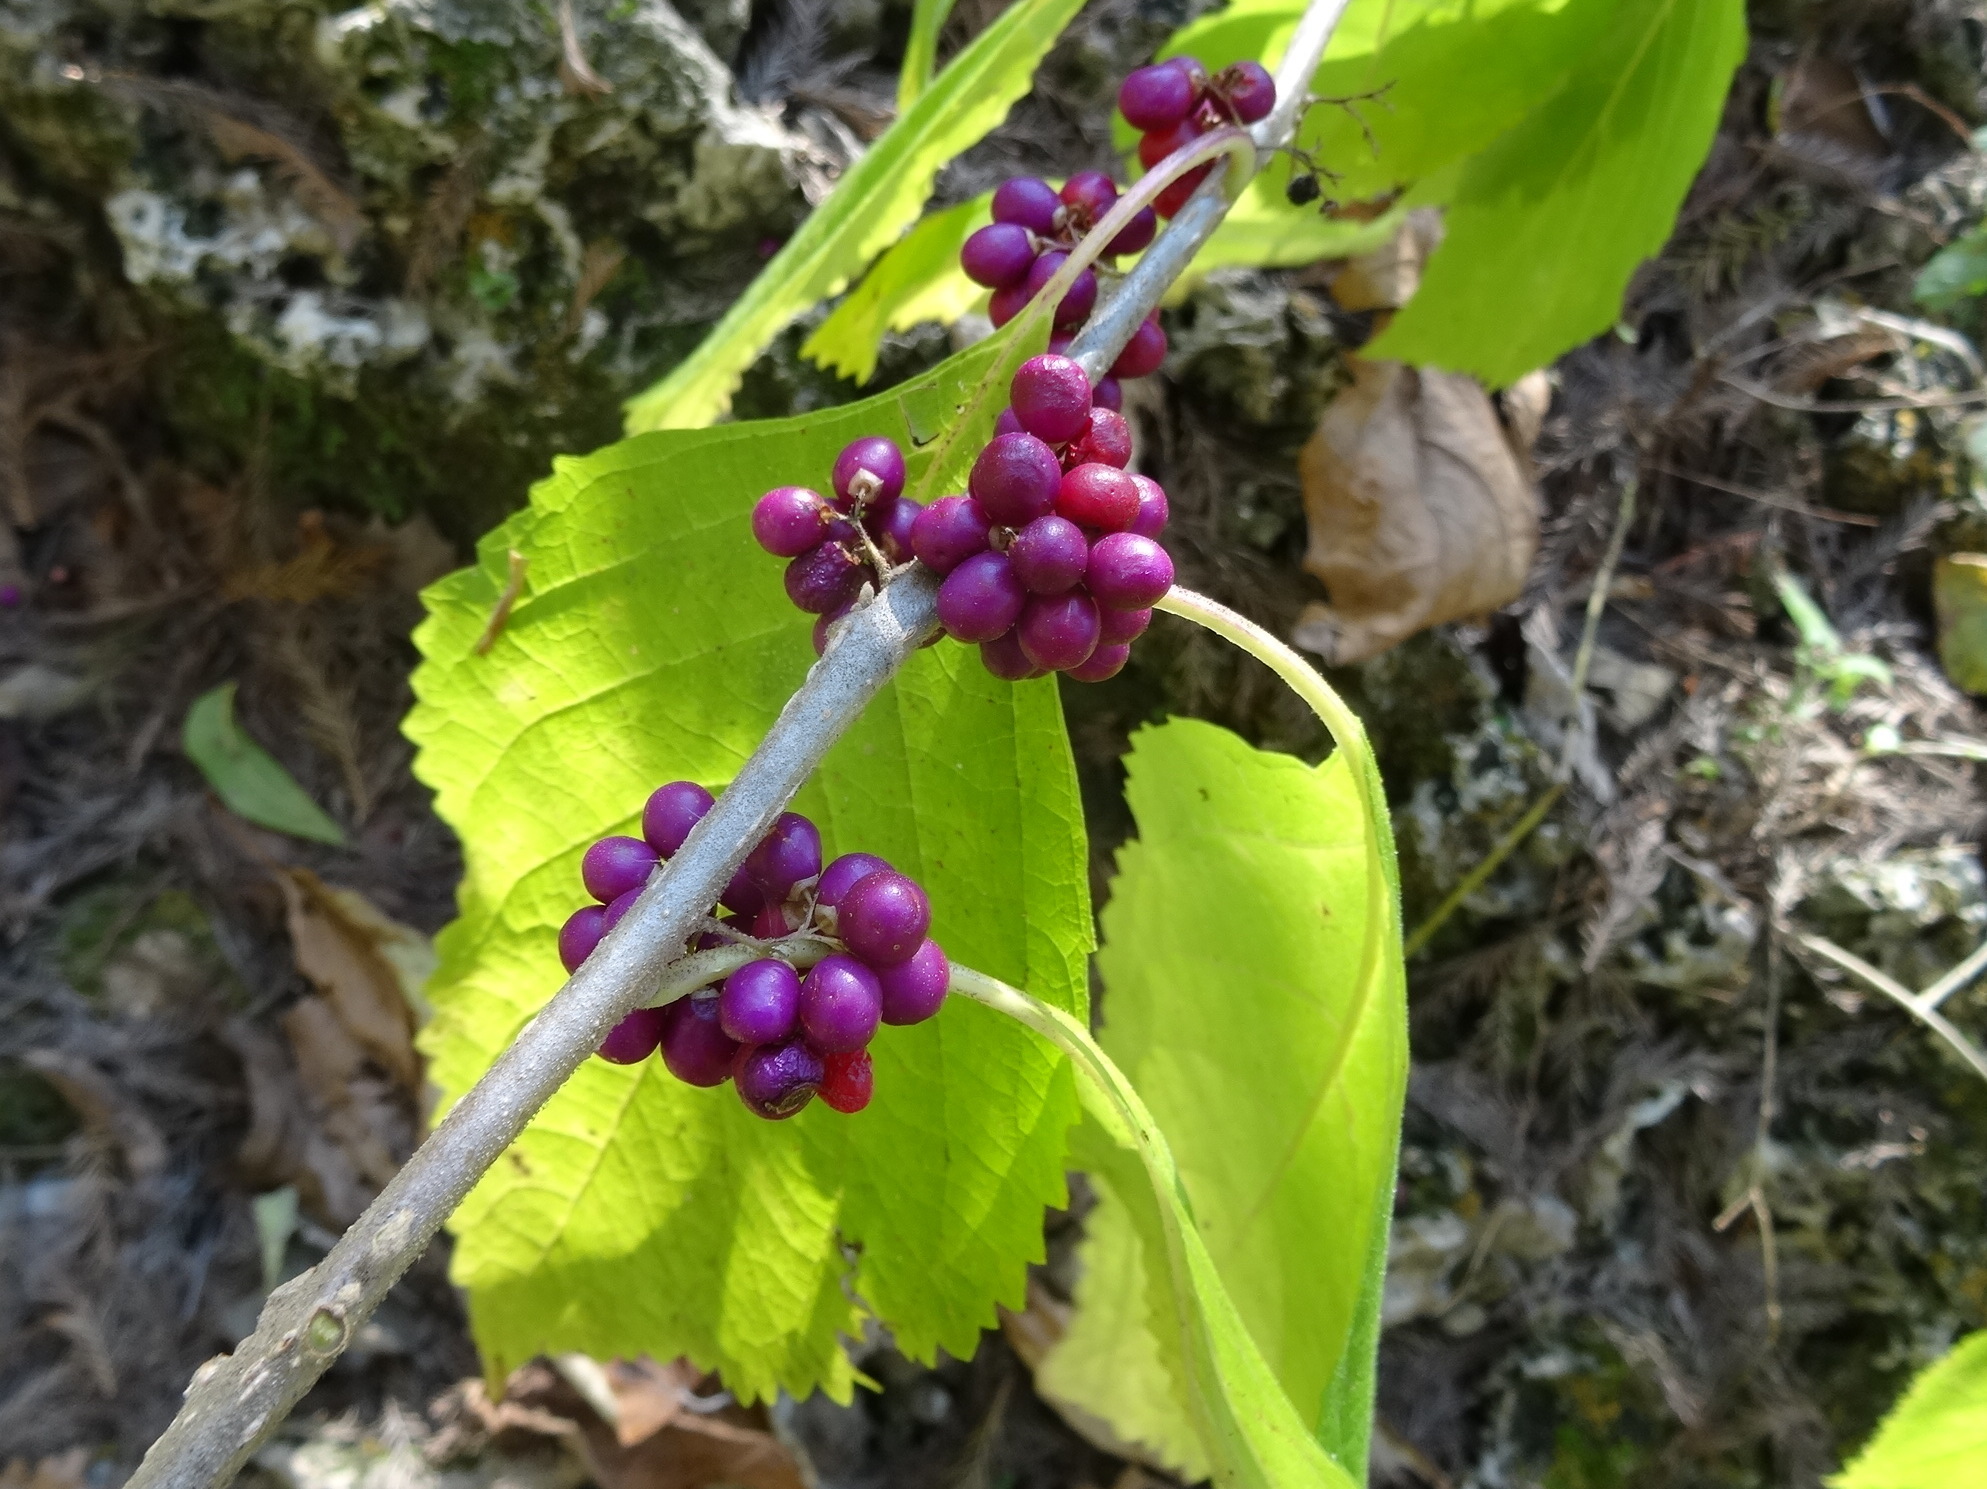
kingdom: Plantae
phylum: Tracheophyta
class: Magnoliopsida
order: Lamiales
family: Lamiaceae
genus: Callicarpa
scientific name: Callicarpa americana
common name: American beautyberry
